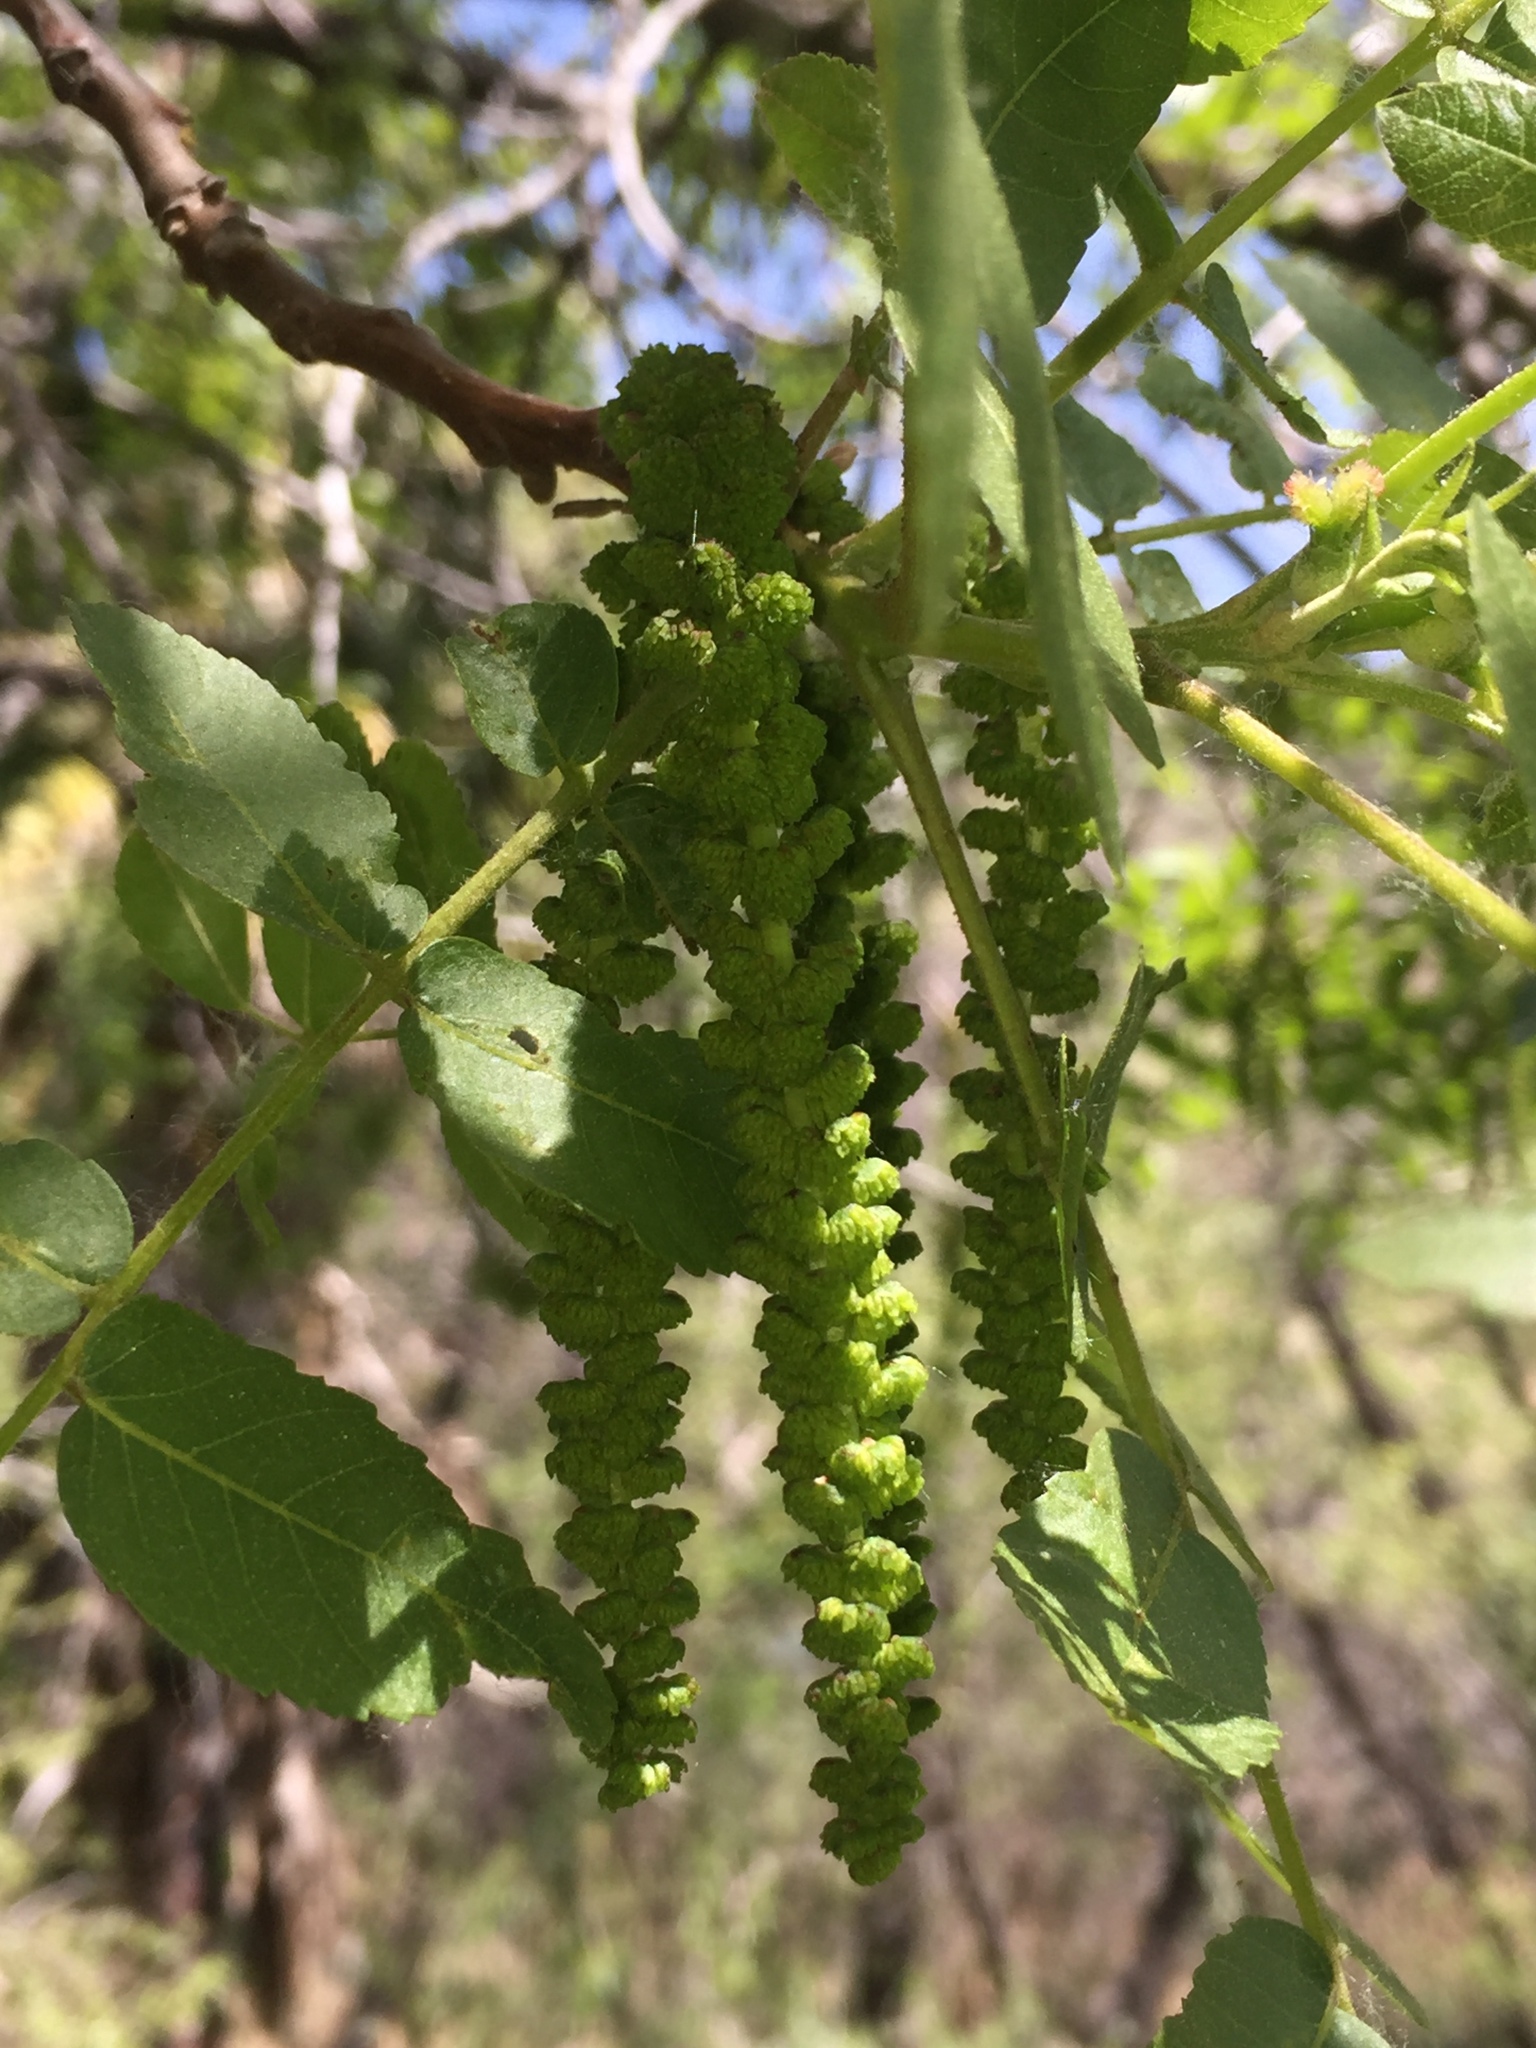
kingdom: Plantae
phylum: Tracheophyta
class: Magnoliopsida
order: Fagales
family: Juglandaceae
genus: Juglans
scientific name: Juglans californica
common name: Southern california black walnut
